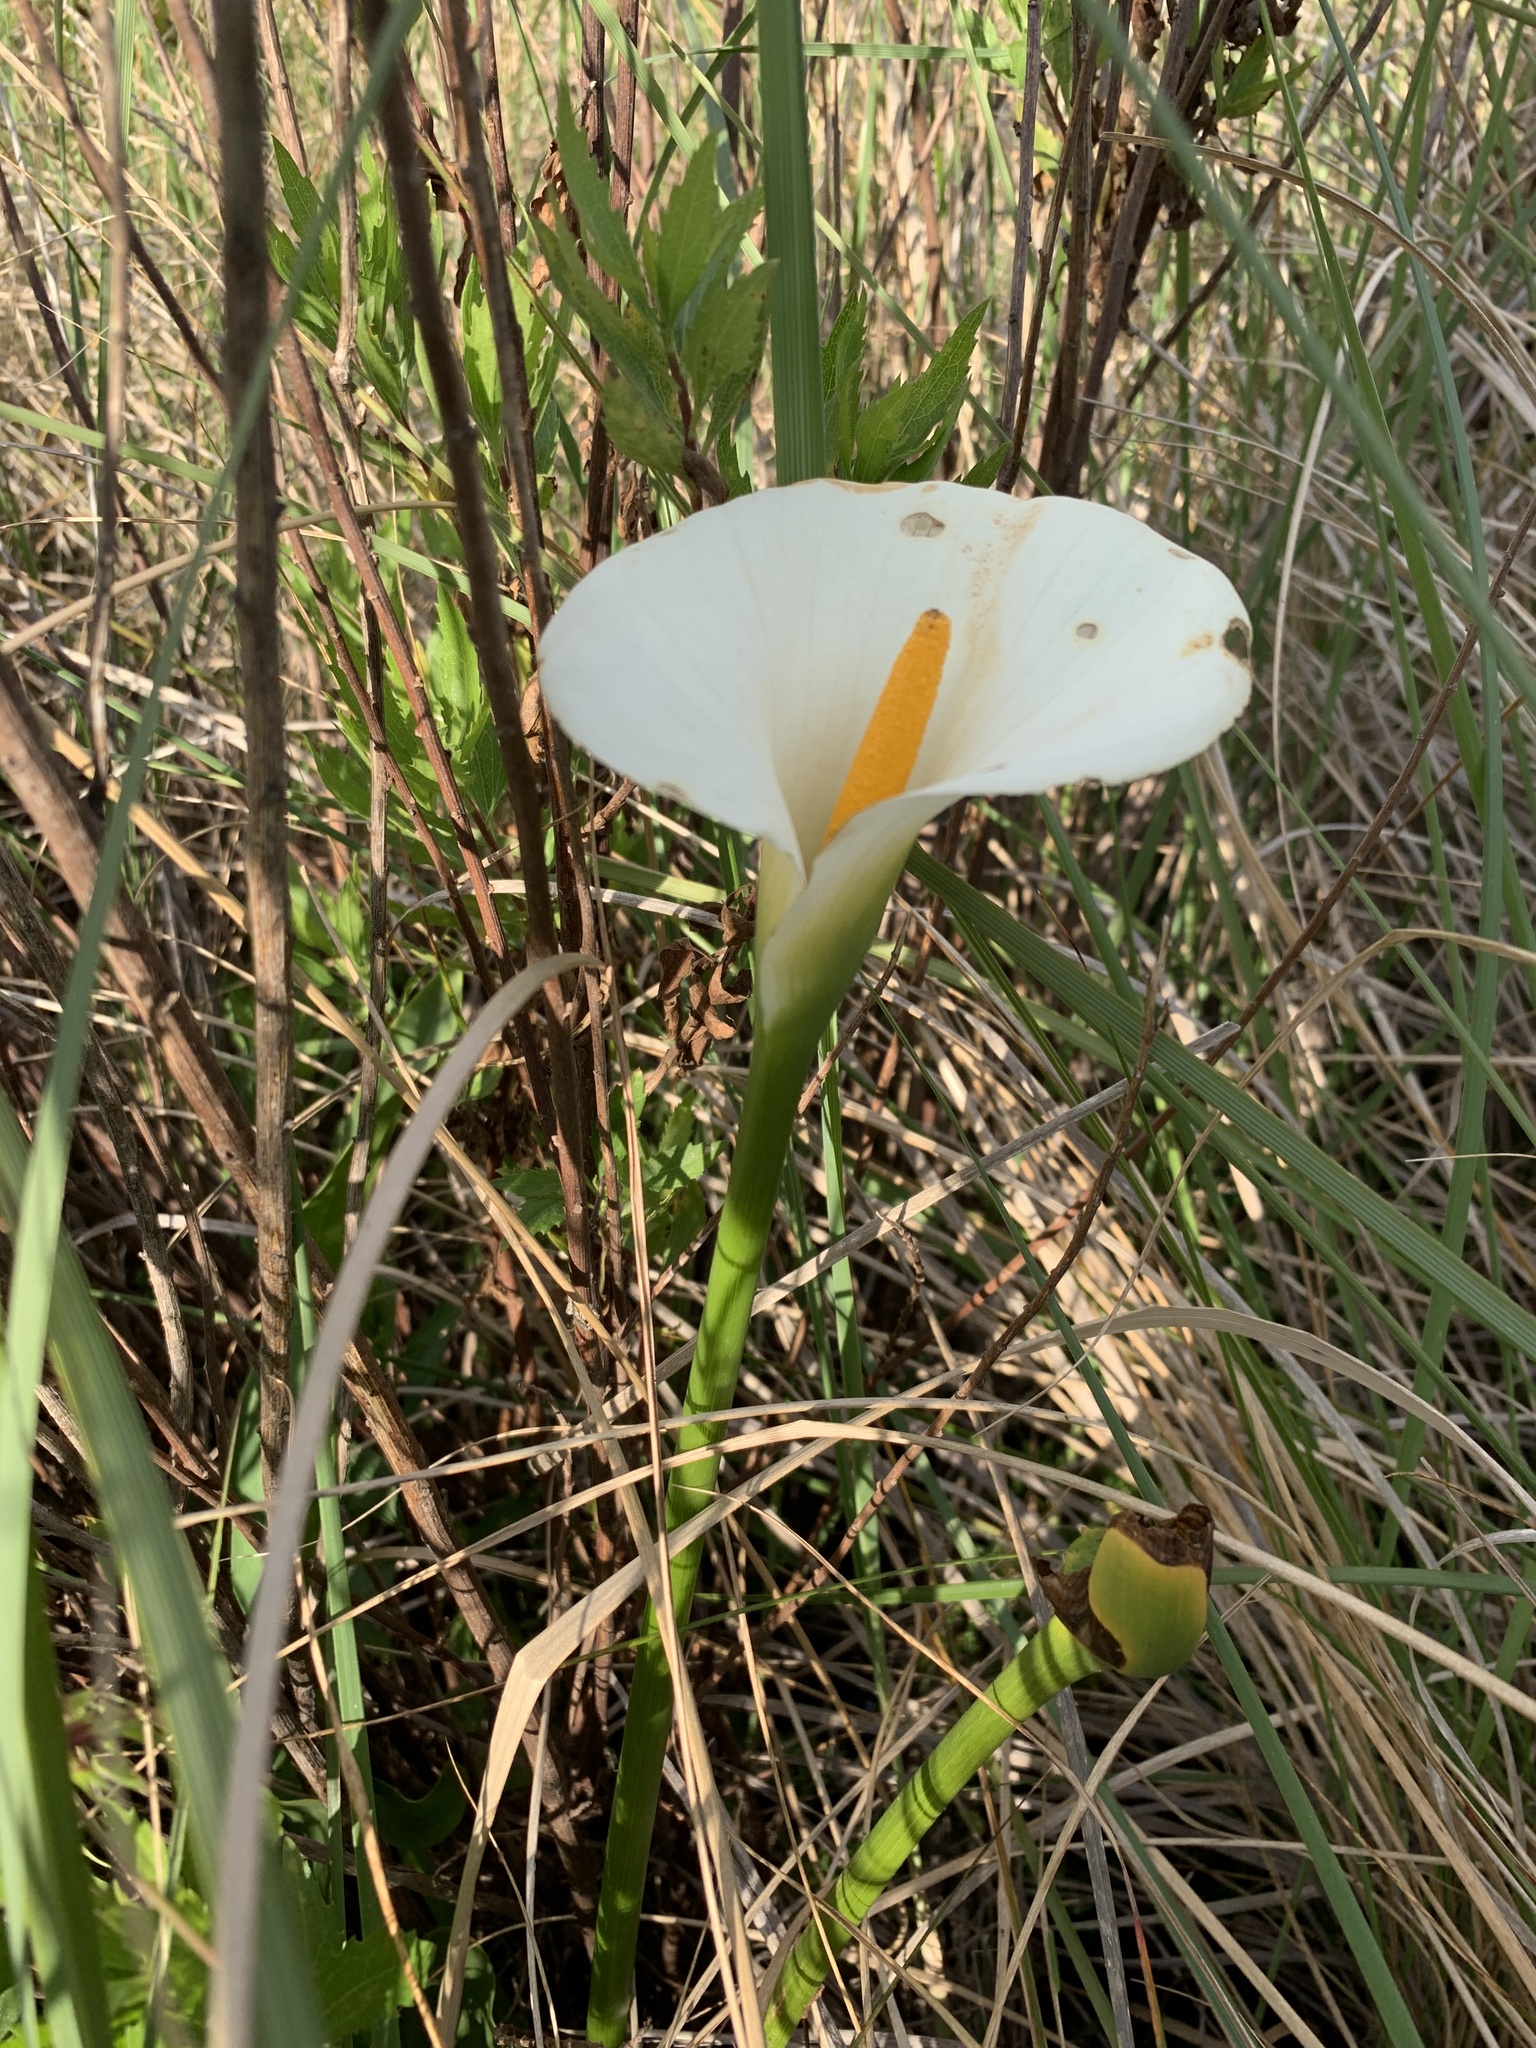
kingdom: Plantae
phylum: Tracheophyta
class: Liliopsida
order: Alismatales
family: Araceae
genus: Zantedeschia
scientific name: Zantedeschia aethiopica
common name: Altar-lily
